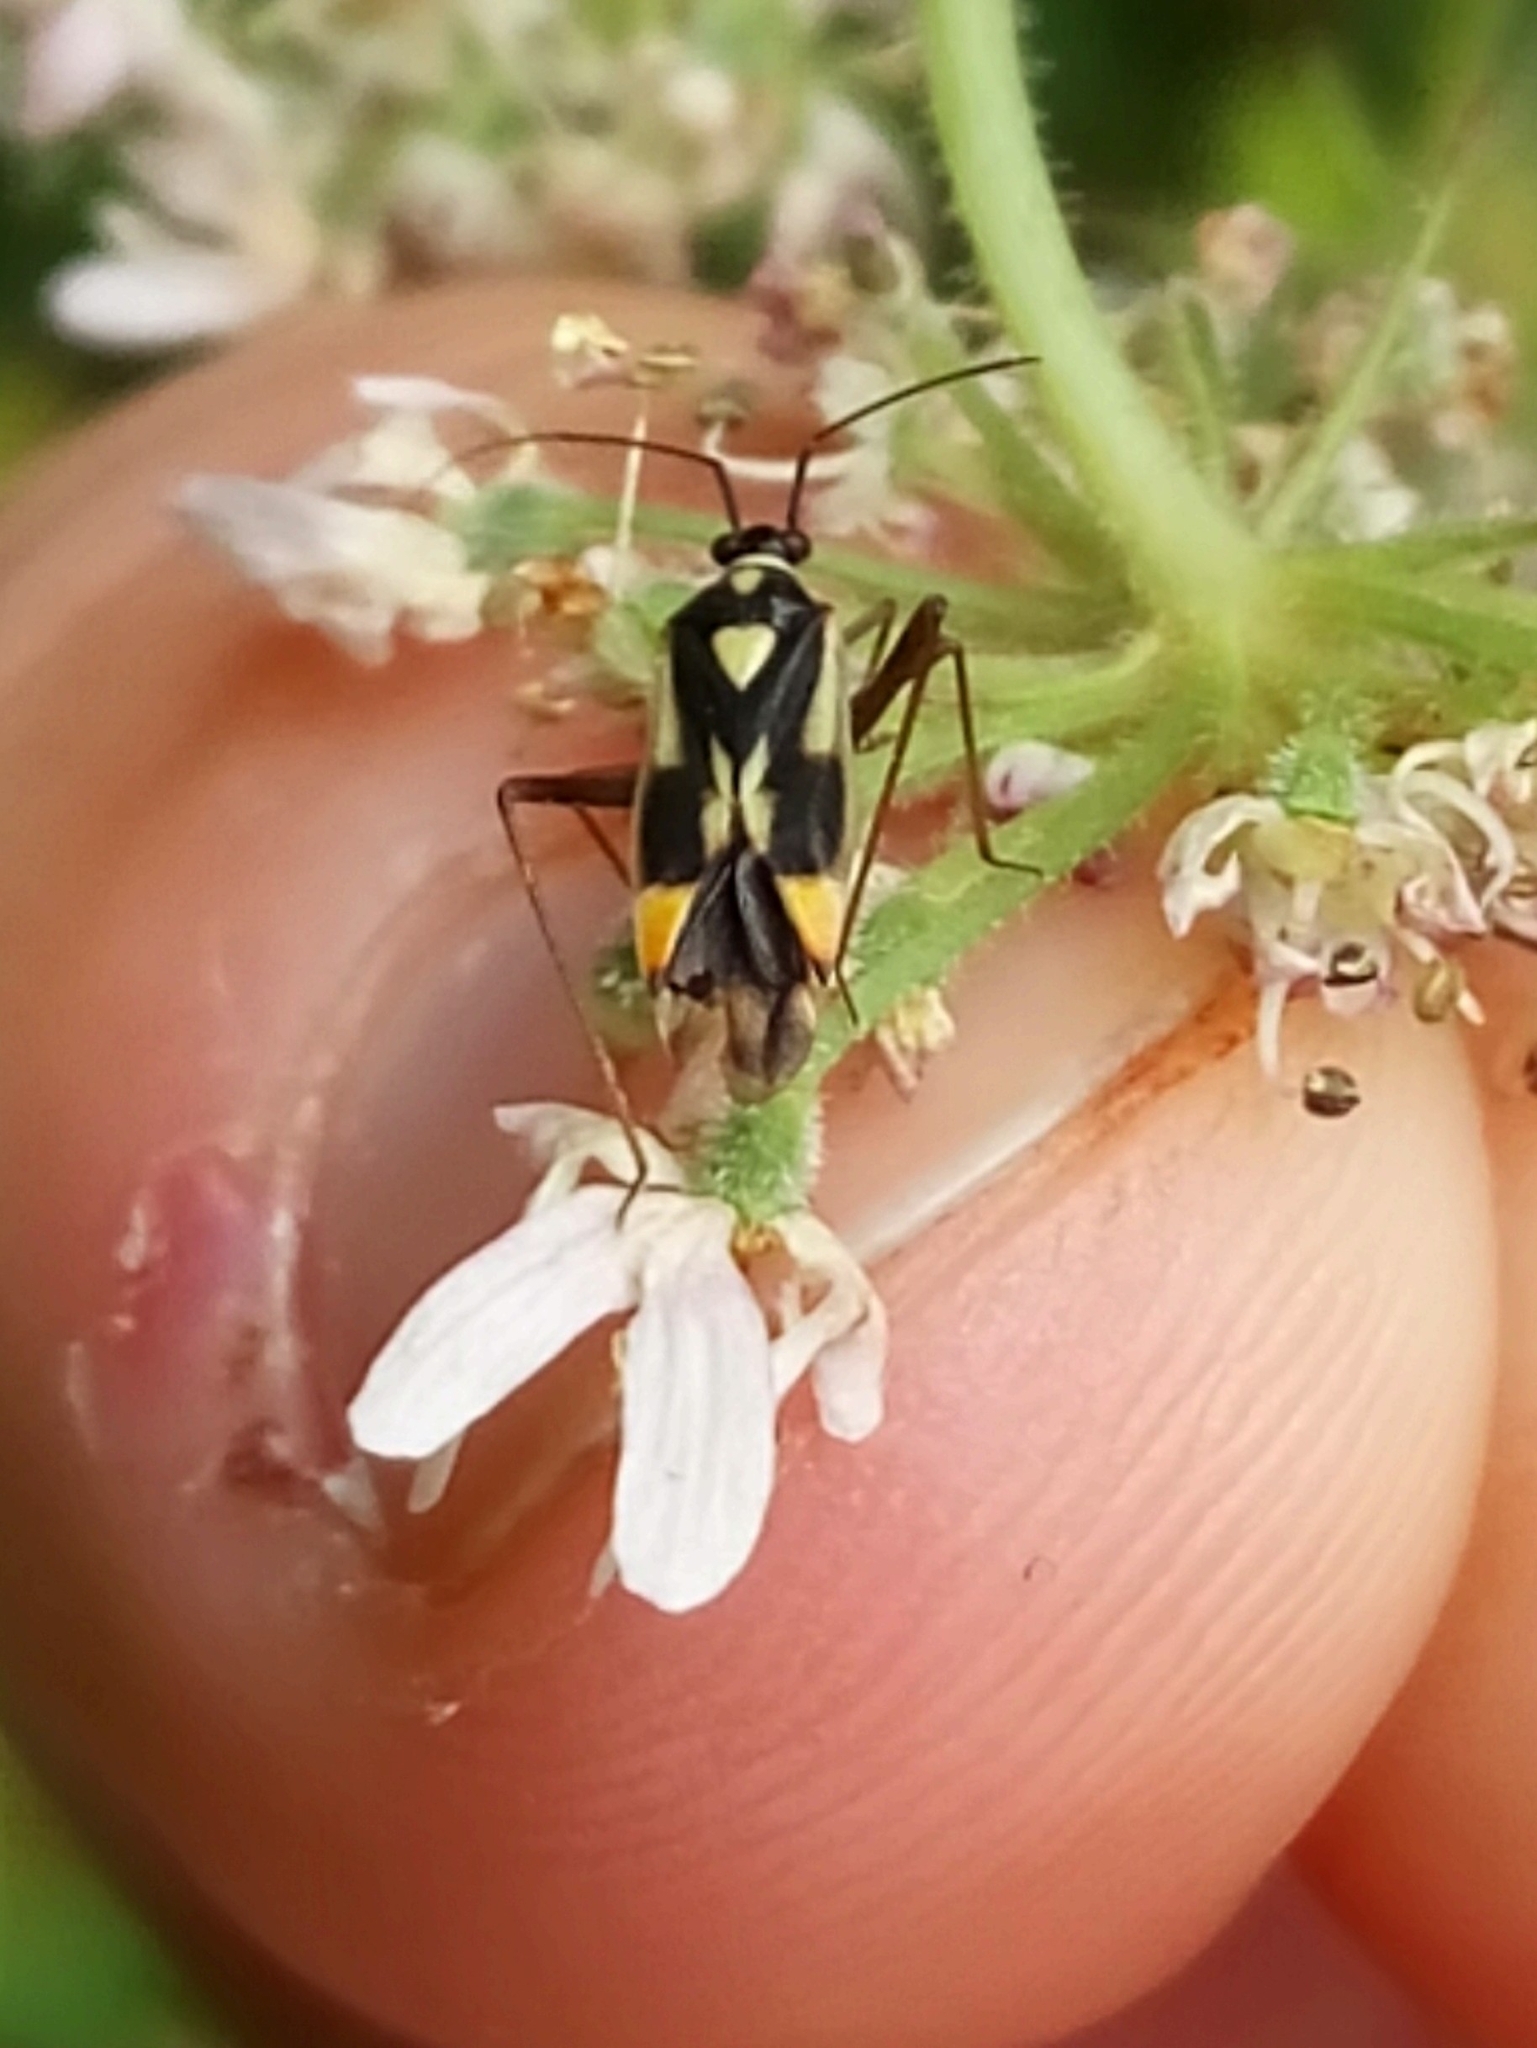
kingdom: Animalia
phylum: Arthropoda
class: Insecta
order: Hemiptera
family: Miridae
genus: Grypocoris
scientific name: Grypocoris stysi
